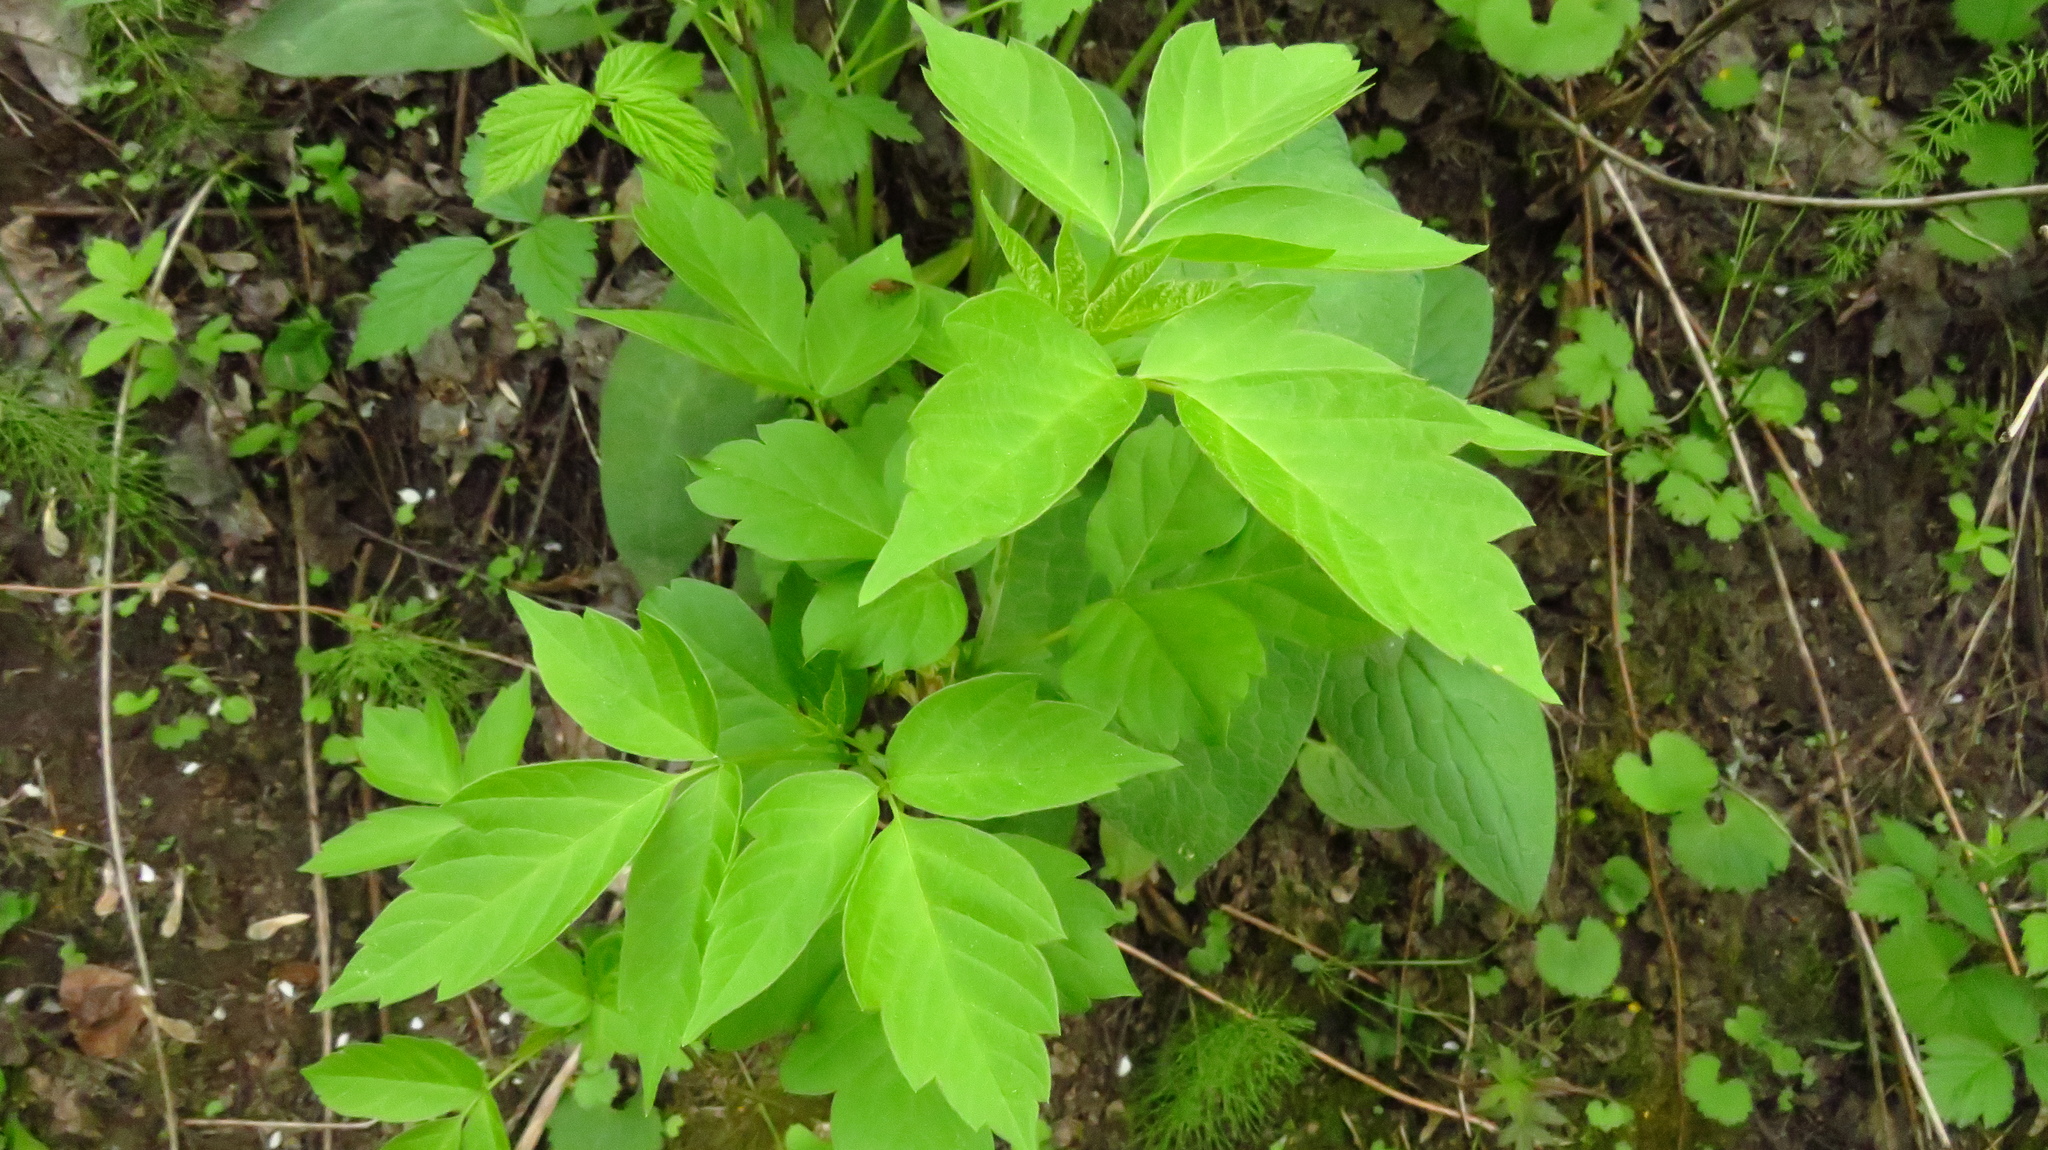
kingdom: Plantae
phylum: Tracheophyta
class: Magnoliopsida
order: Sapindales
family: Sapindaceae
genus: Acer
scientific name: Acer negundo
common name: Ashleaf maple
